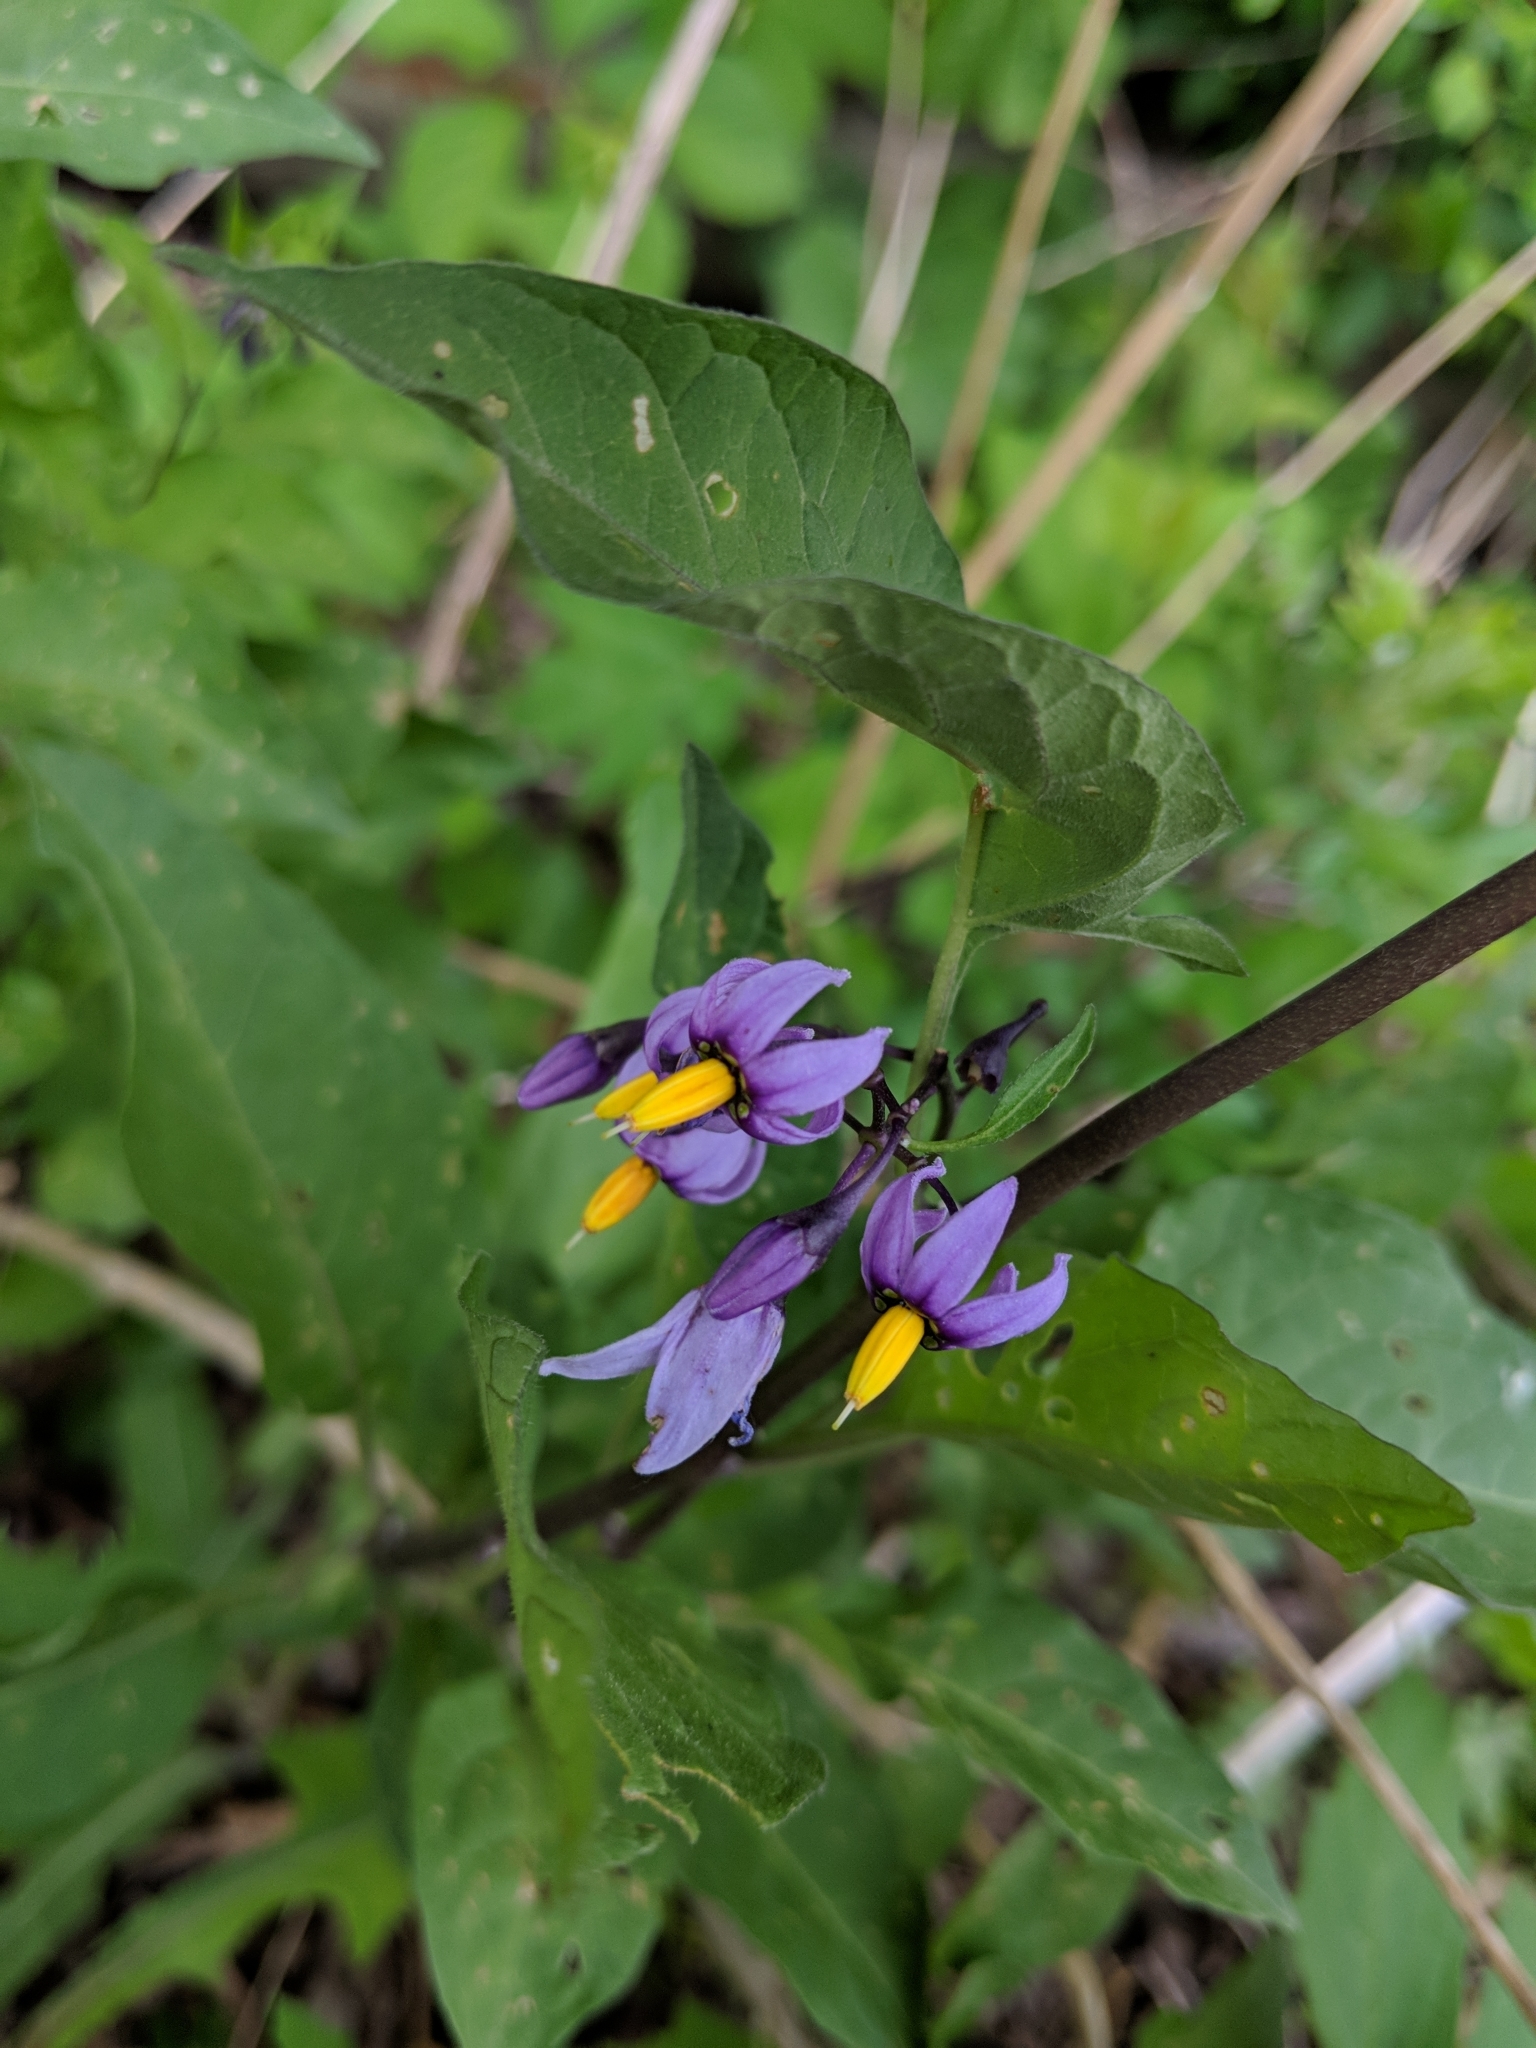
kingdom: Plantae
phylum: Tracheophyta
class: Magnoliopsida
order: Solanales
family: Solanaceae
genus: Solanum
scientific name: Solanum dulcamara
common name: Climbing nightshade
